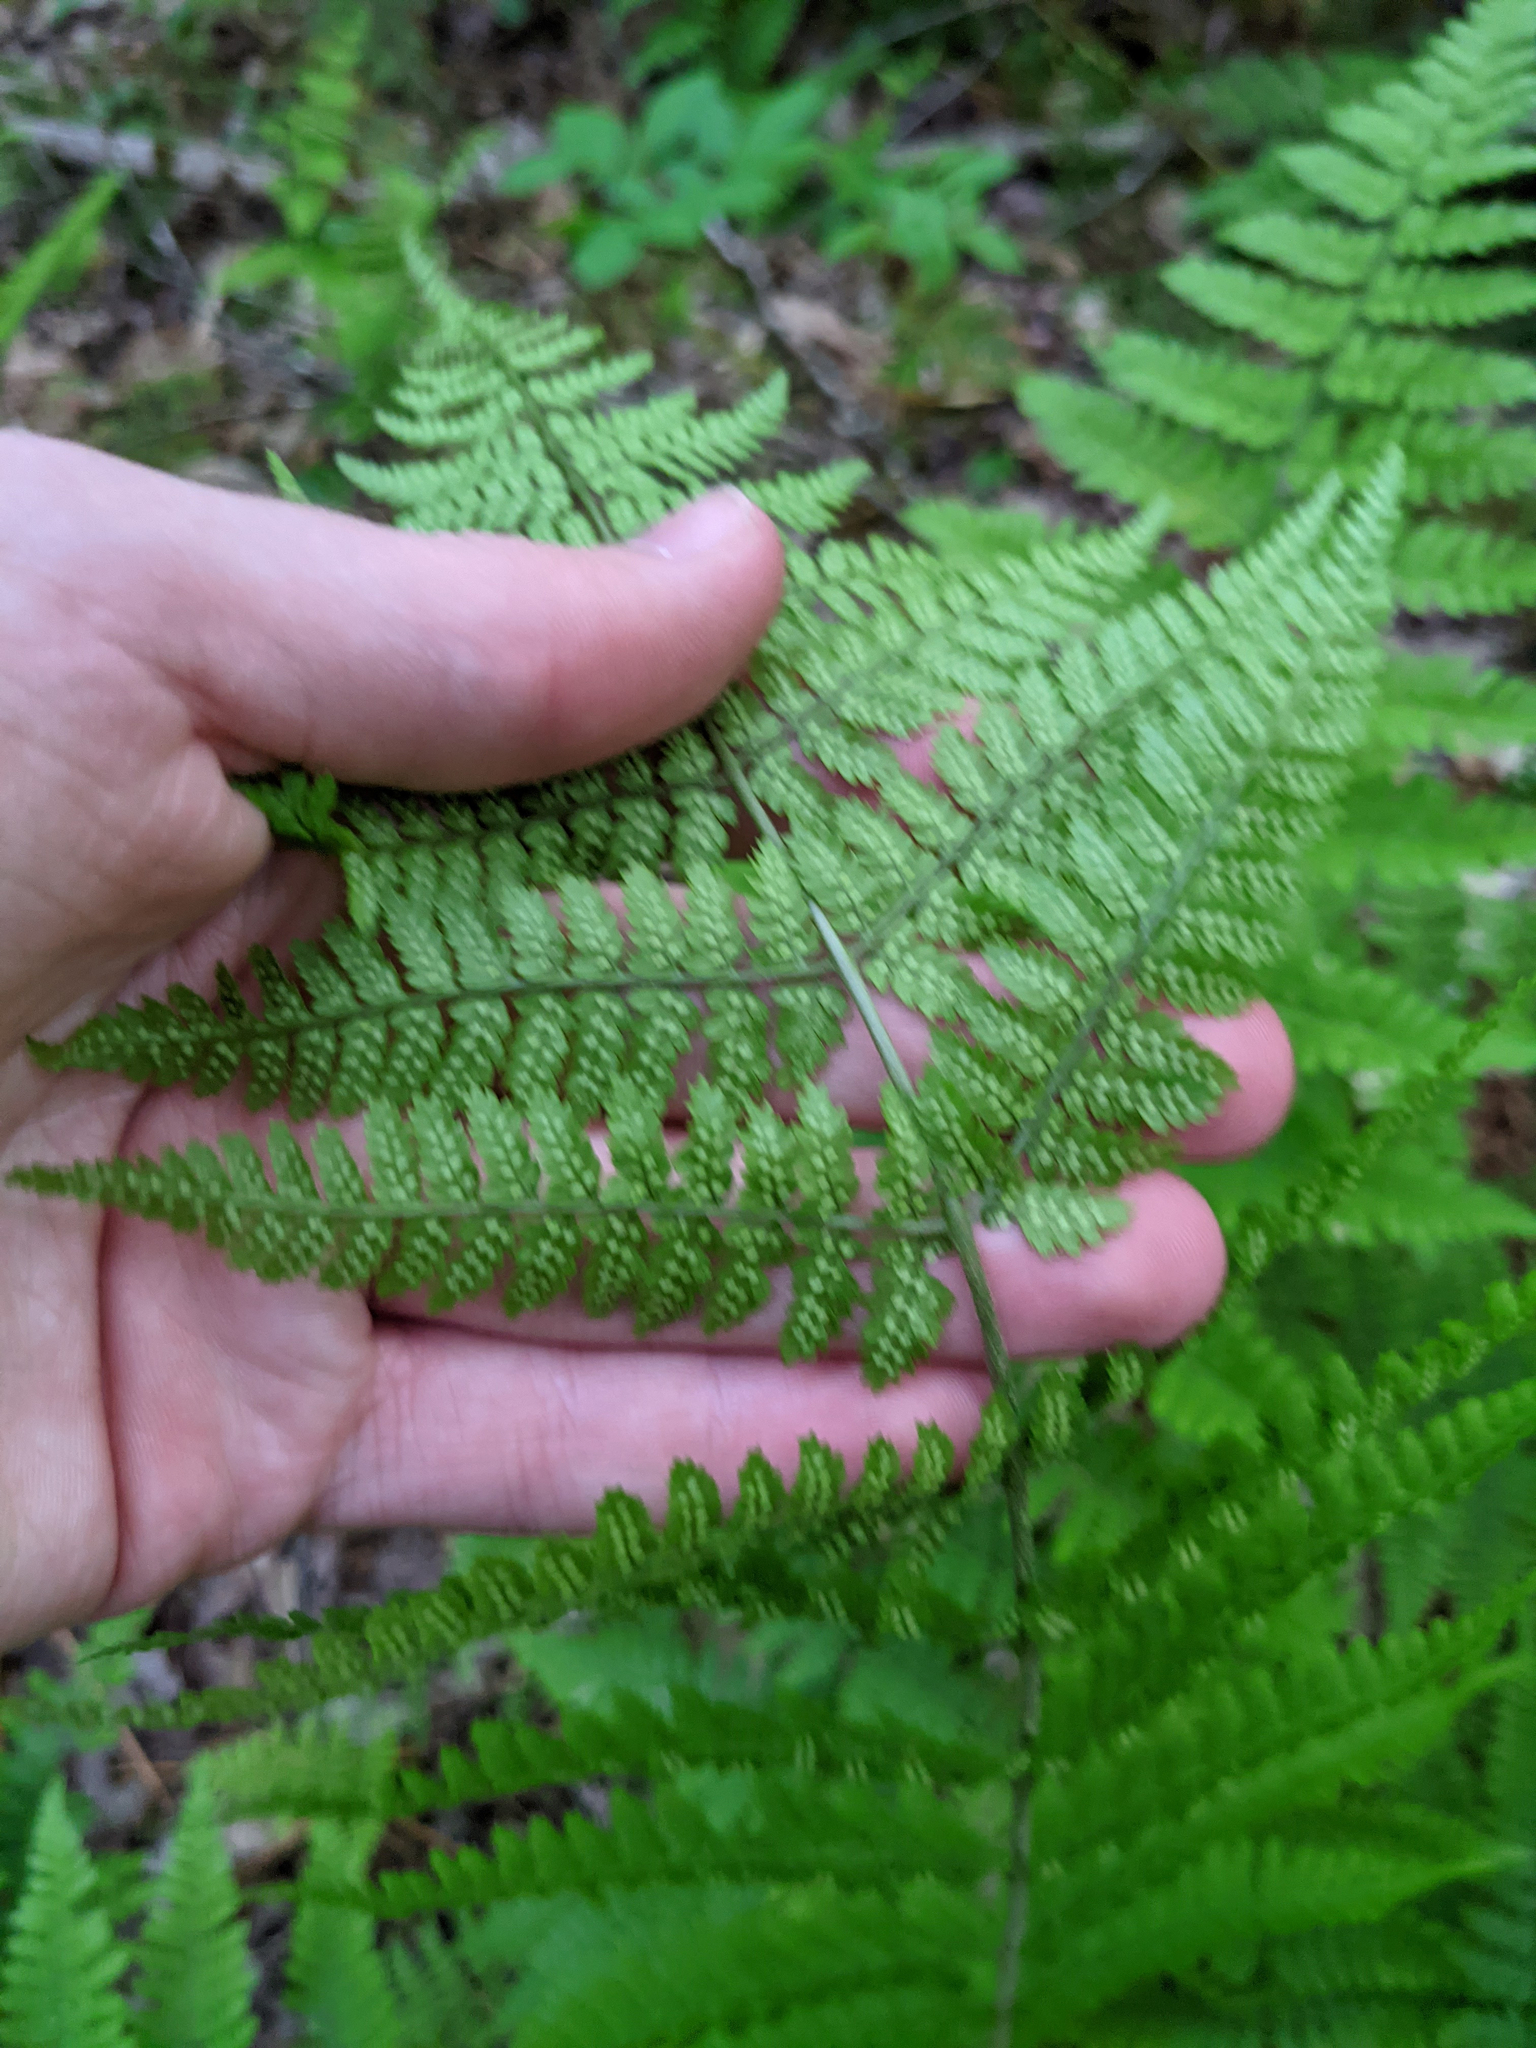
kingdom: Plantae
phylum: Tracheophyta
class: Polypodiopsida
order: Polypodiales
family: Dryopteridaceae
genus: Dryopteris
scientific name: Dryopteris intermedia
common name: Evergreen wood fern
